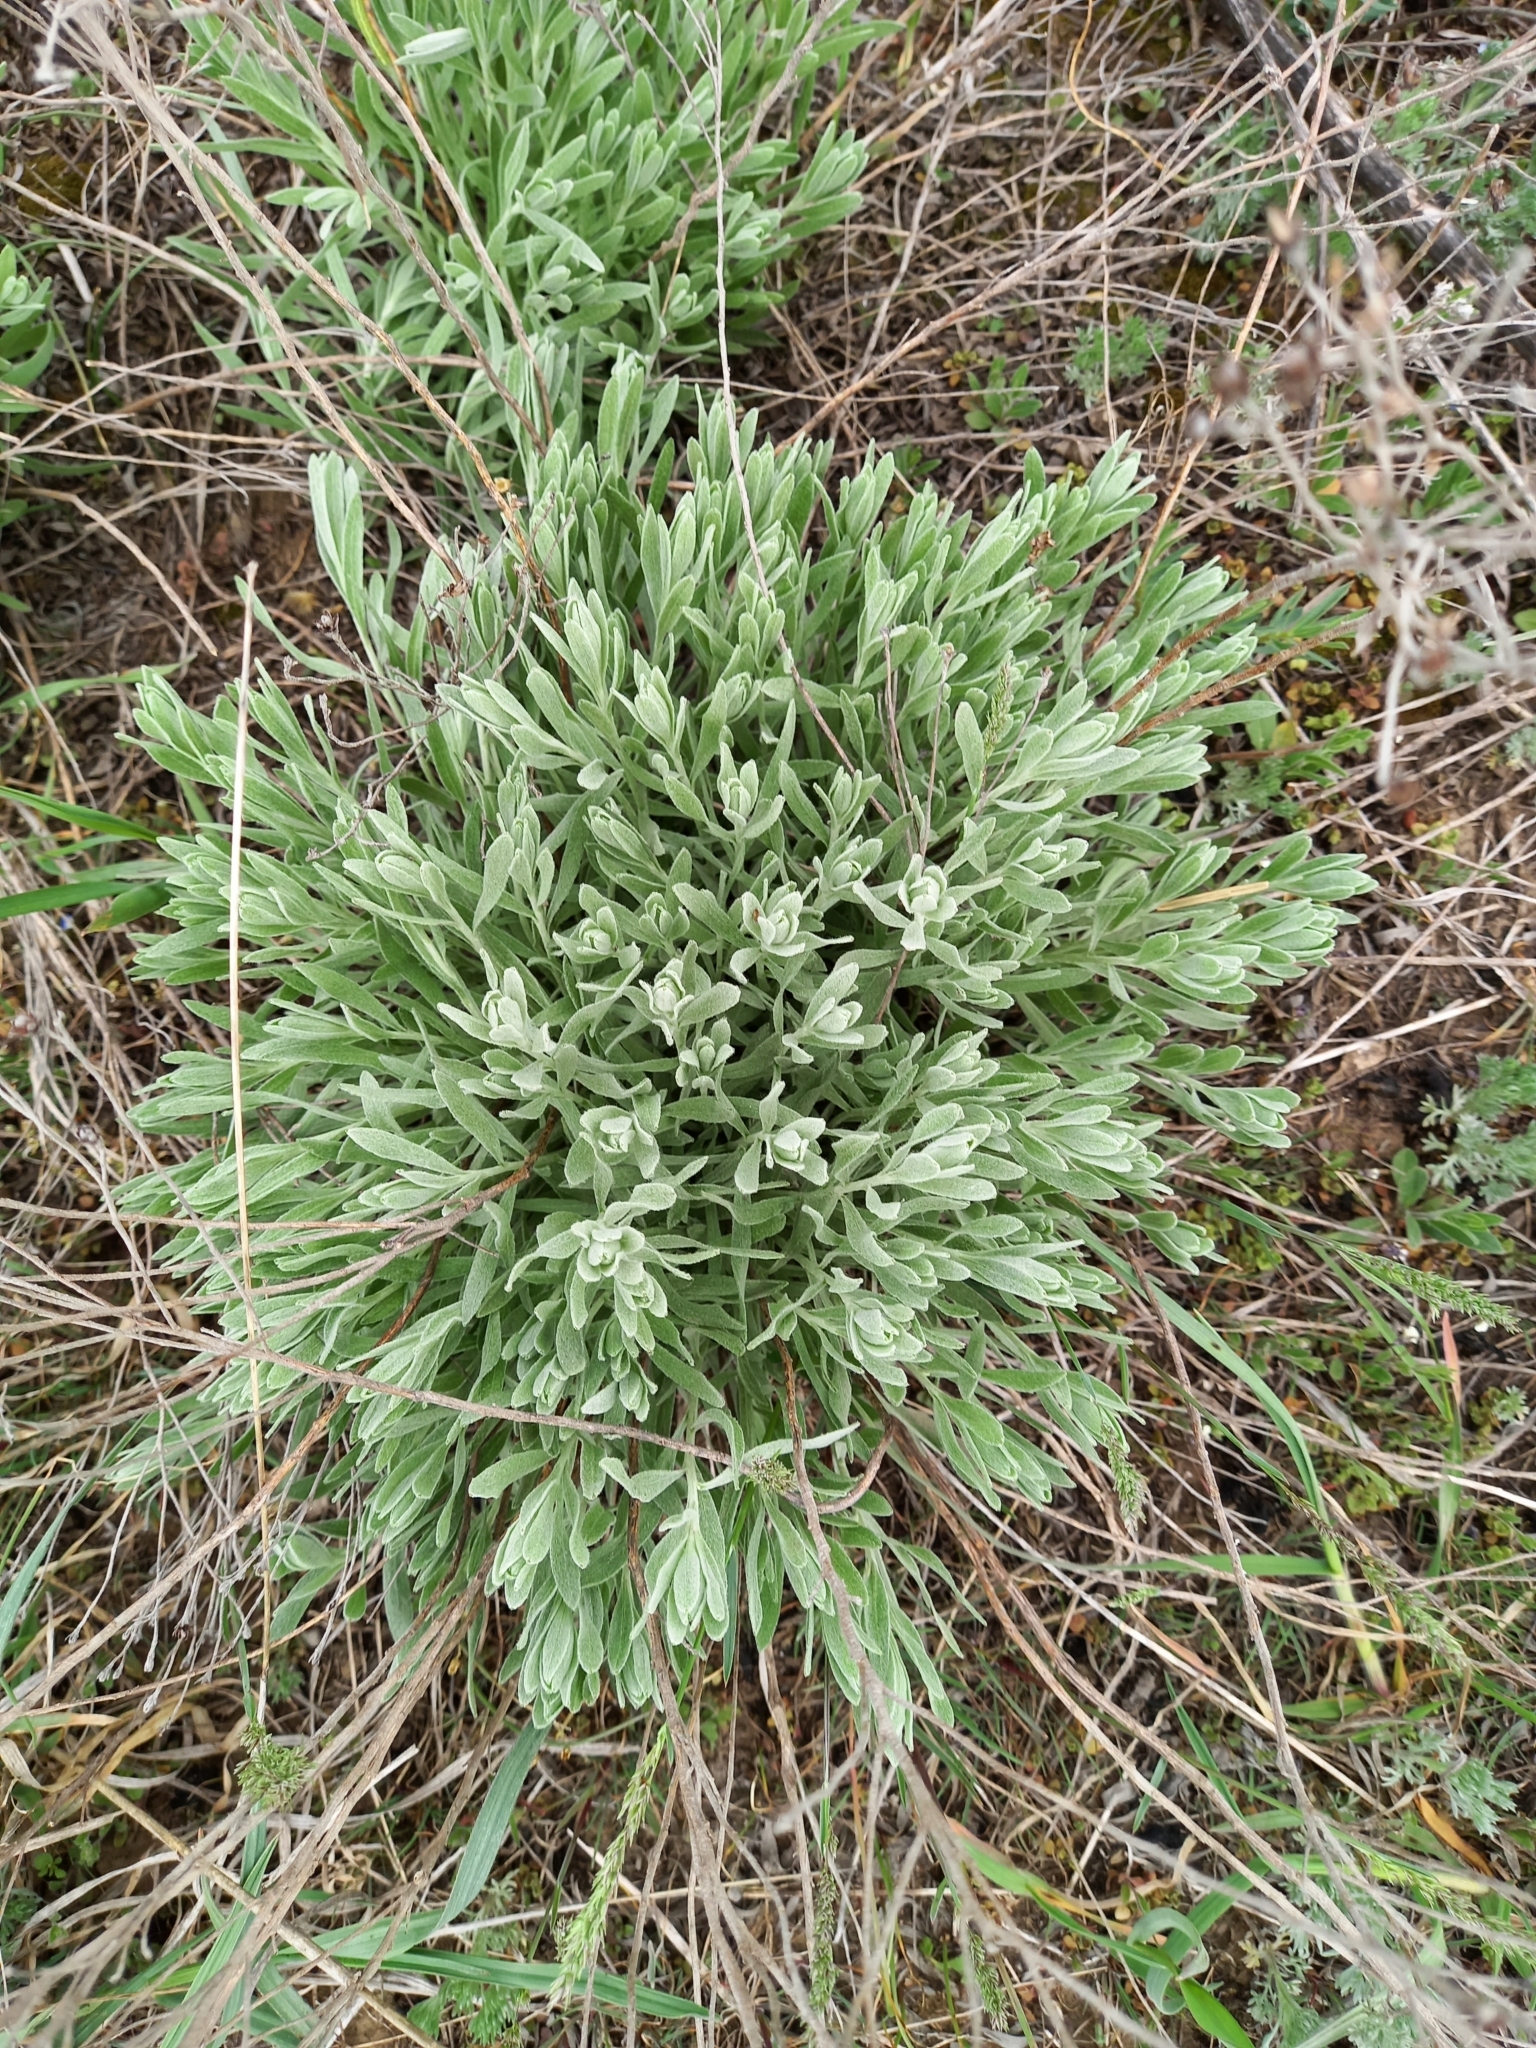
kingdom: Plantae
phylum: Tracheophyta
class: Magnoliopsida
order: Asterales
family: Asteraceae
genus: Galatella
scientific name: Galatella villosa
